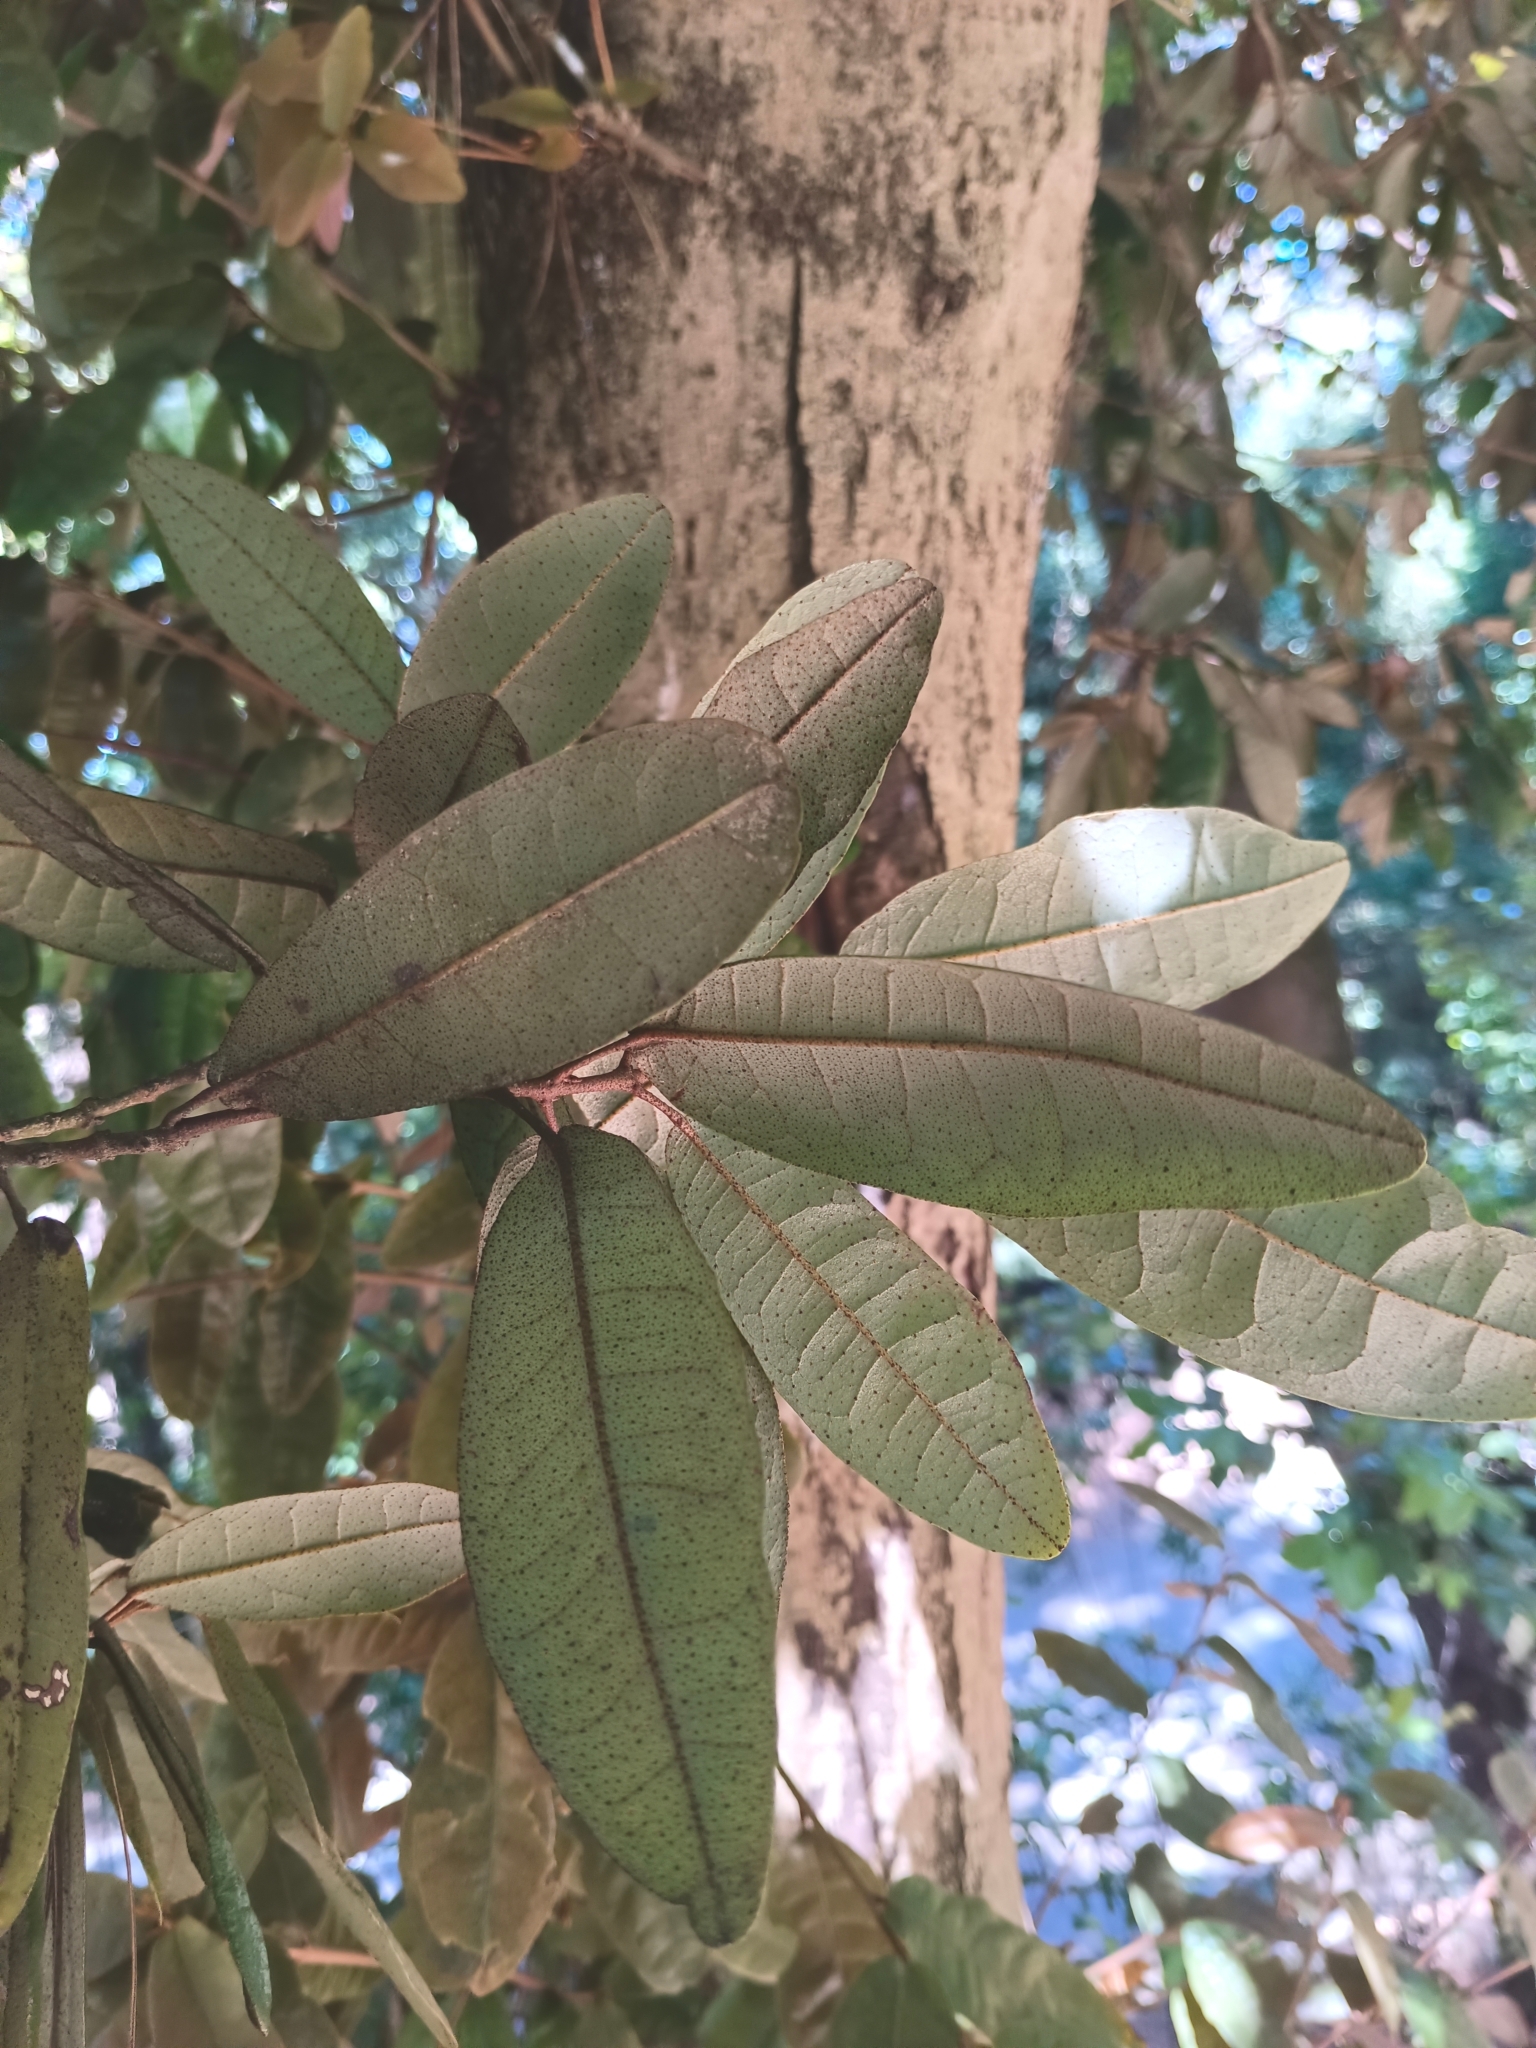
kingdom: Plantae
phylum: Tracheophyta
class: Magnoliopsida
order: Berberidopsidales
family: Aextoxicaceae
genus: Aextoxicon
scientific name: Aextoxicon punctatum
